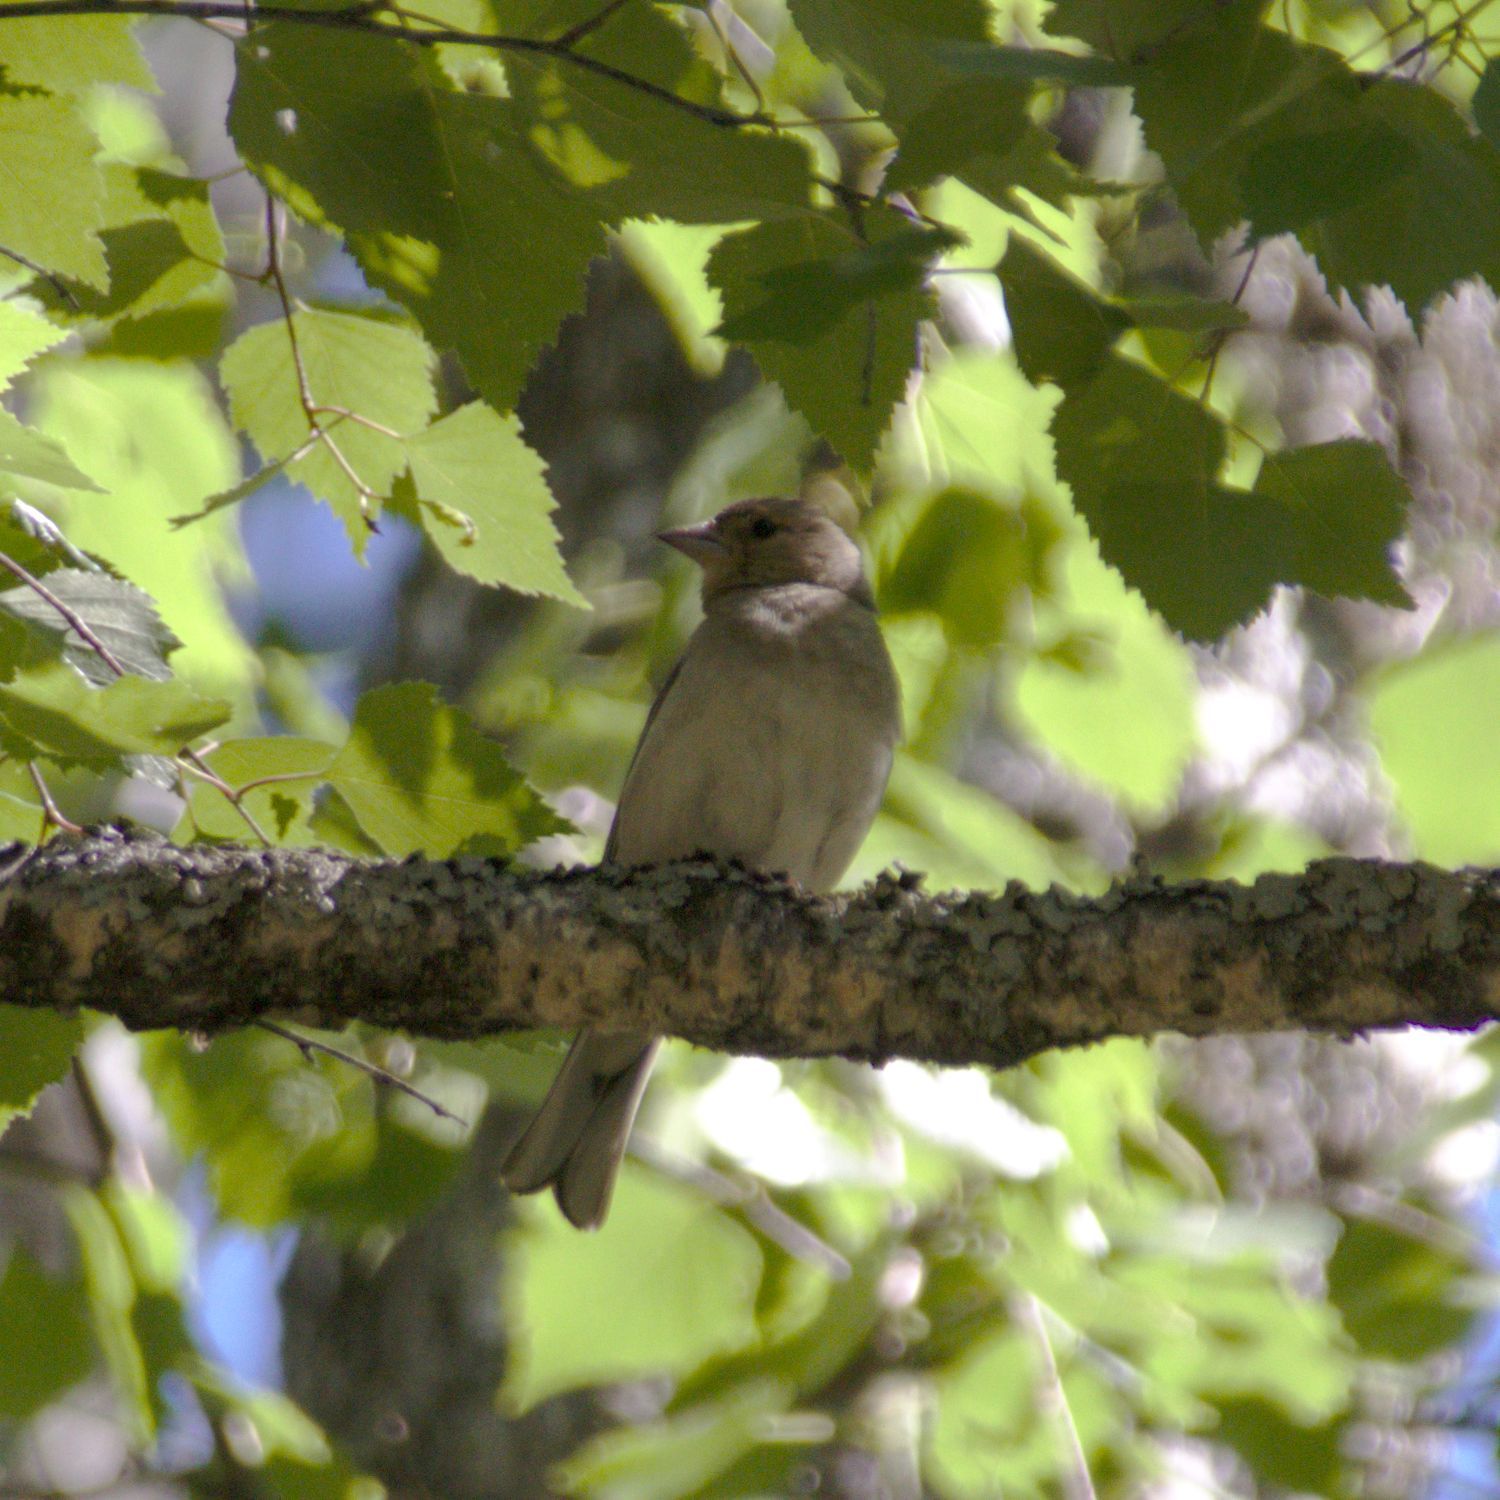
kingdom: Animalia
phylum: Chordata
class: Aves
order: Passeriformes
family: Fringillidae
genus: Fringilla
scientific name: Fringilla coelebs
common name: Common chaffinch
